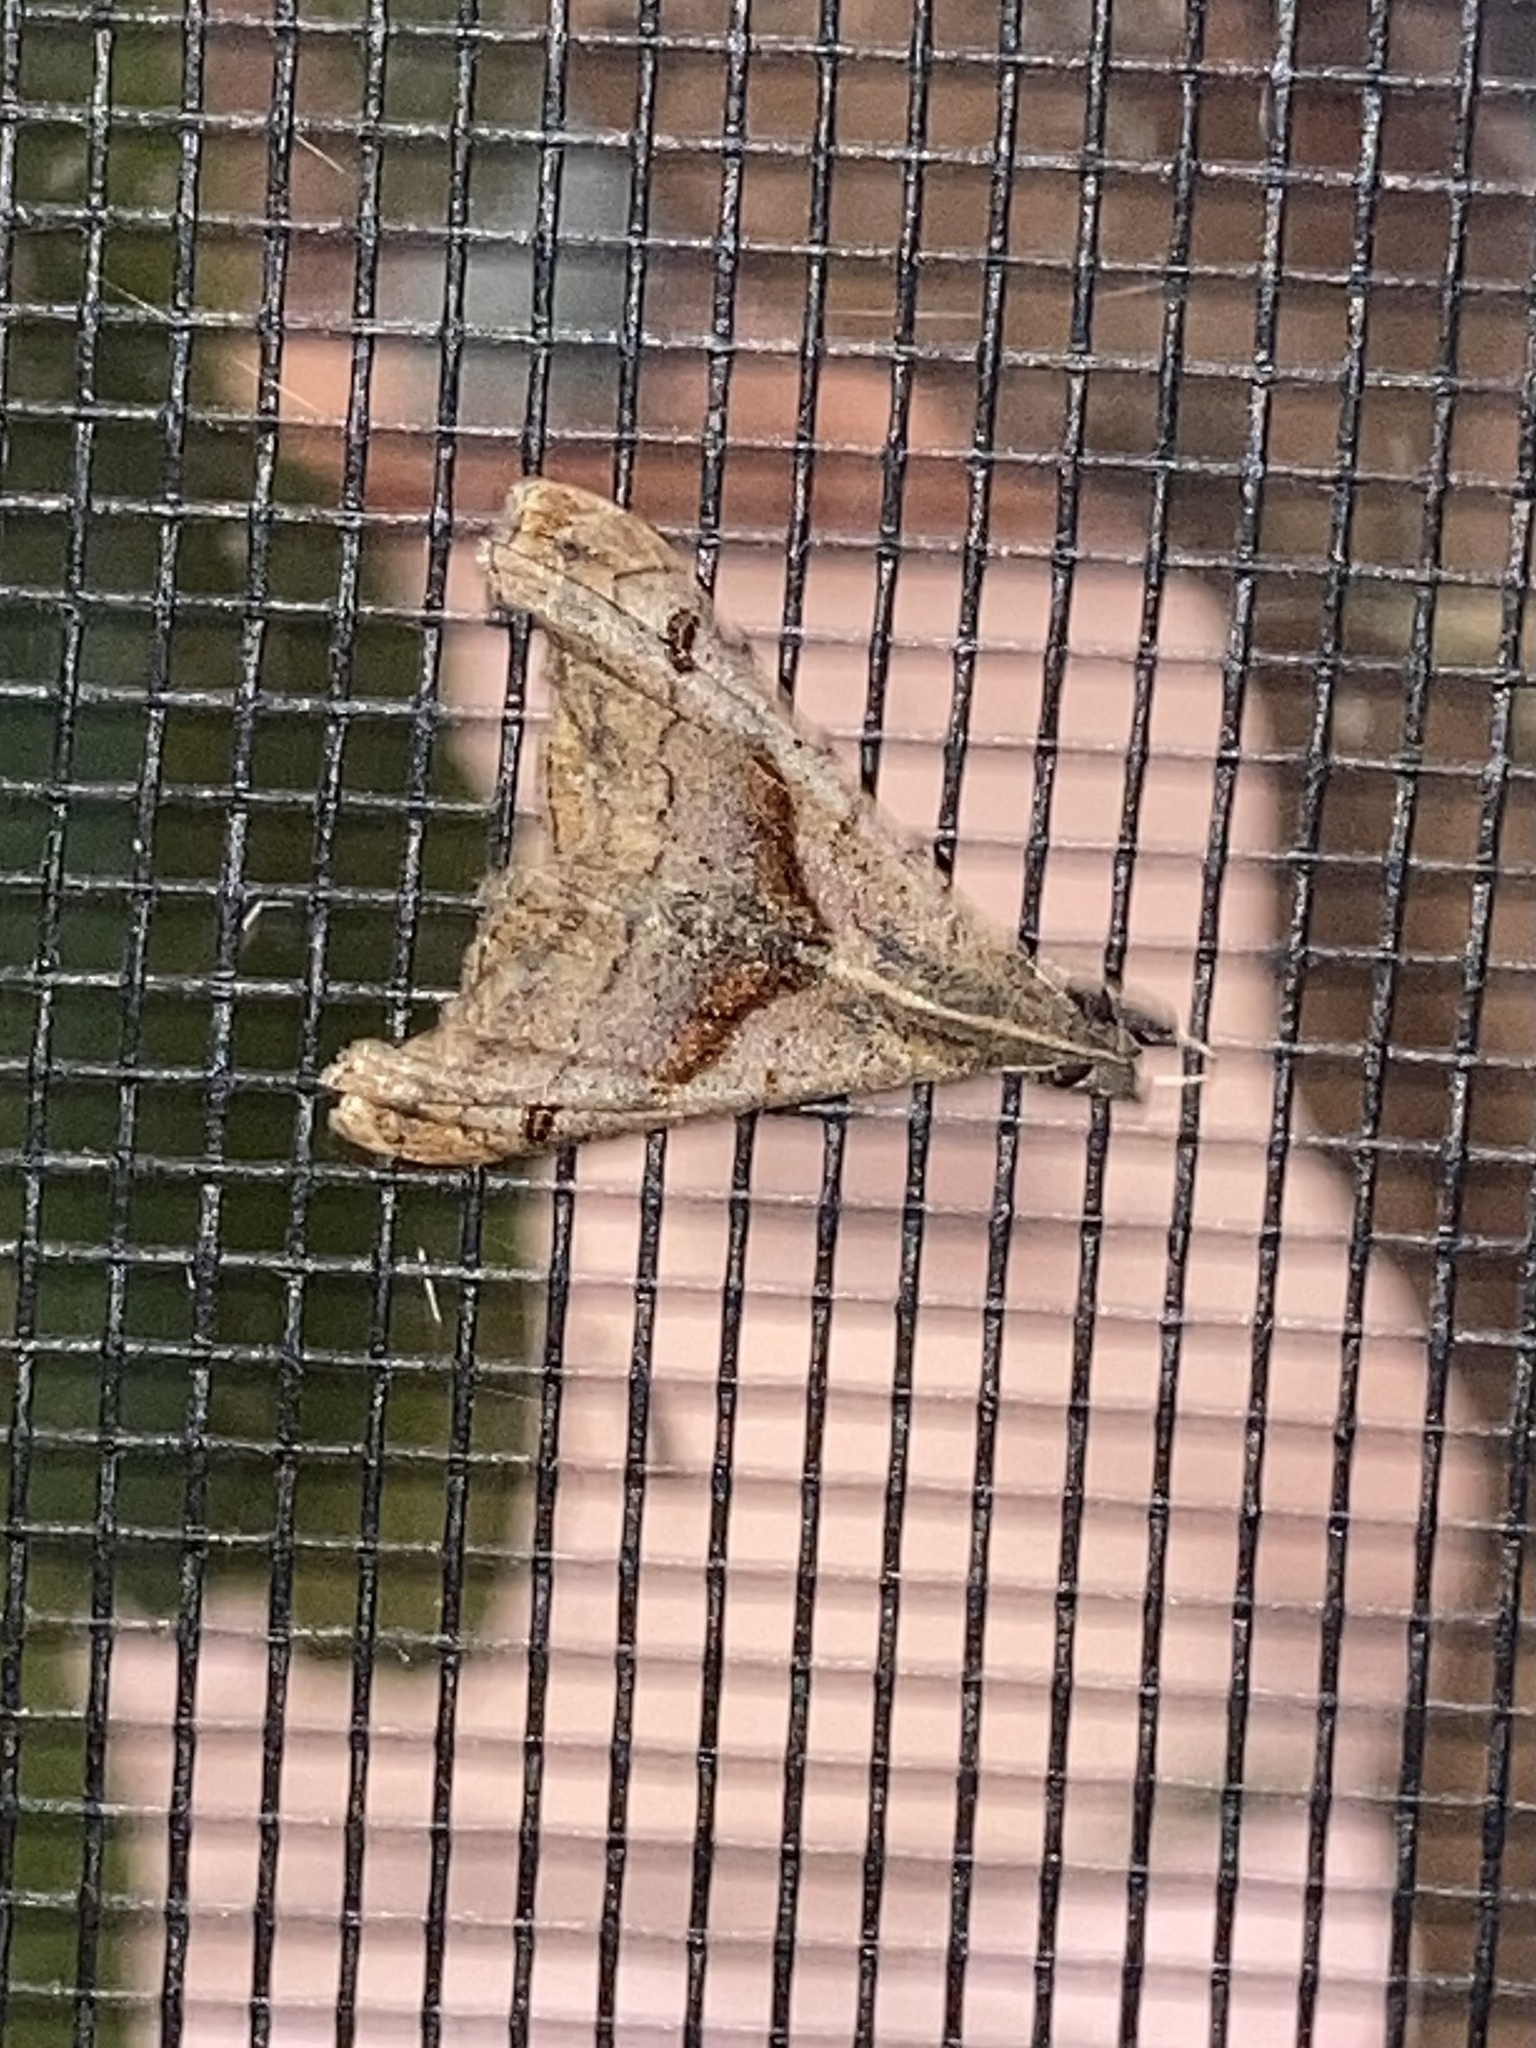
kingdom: Animalia
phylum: Arthropoda
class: Insecta
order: Lepidoptera
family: Erebidae
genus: Palthis
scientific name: Palthis angulalis
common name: Dark-spotted palthis moth
